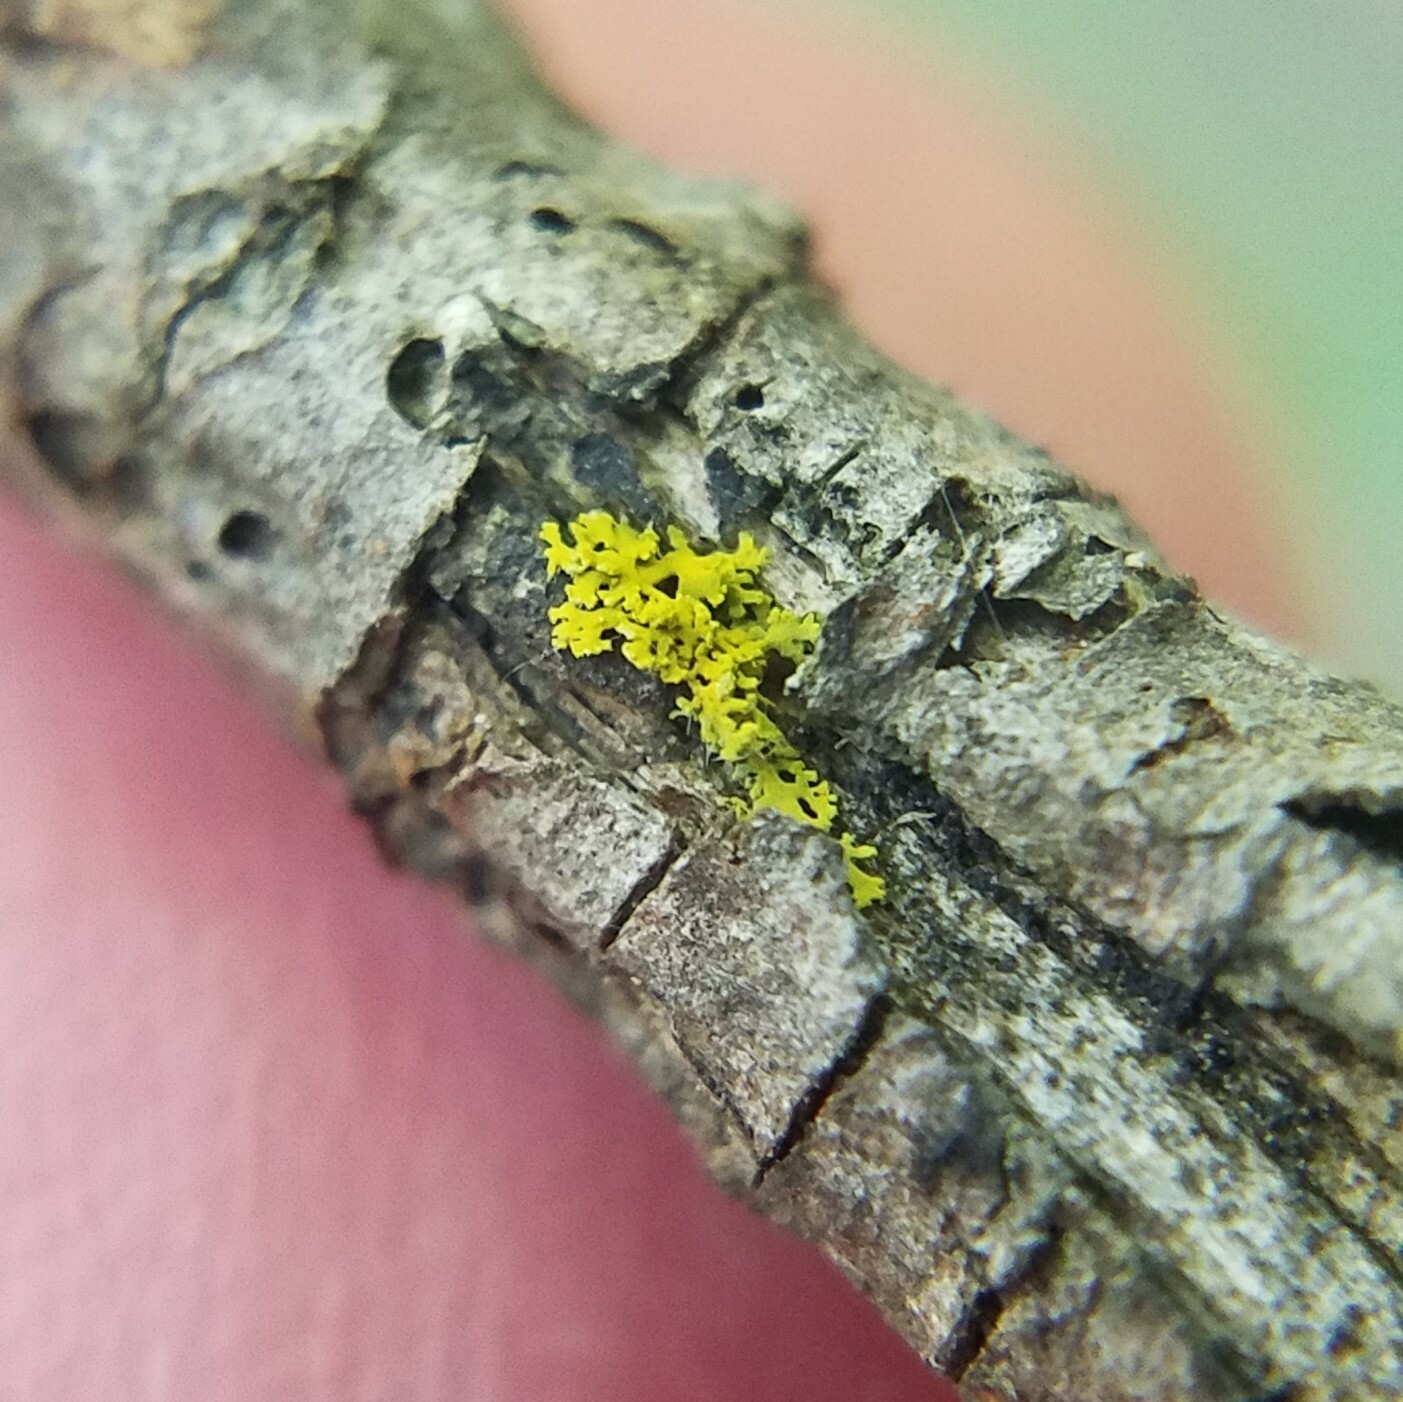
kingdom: Fungi
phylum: Ascomycota
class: Candelariomycetes
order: Candelariales
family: Candelariaceae
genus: Candelaria
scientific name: Candelaria concolor
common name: Candleflame lichen
